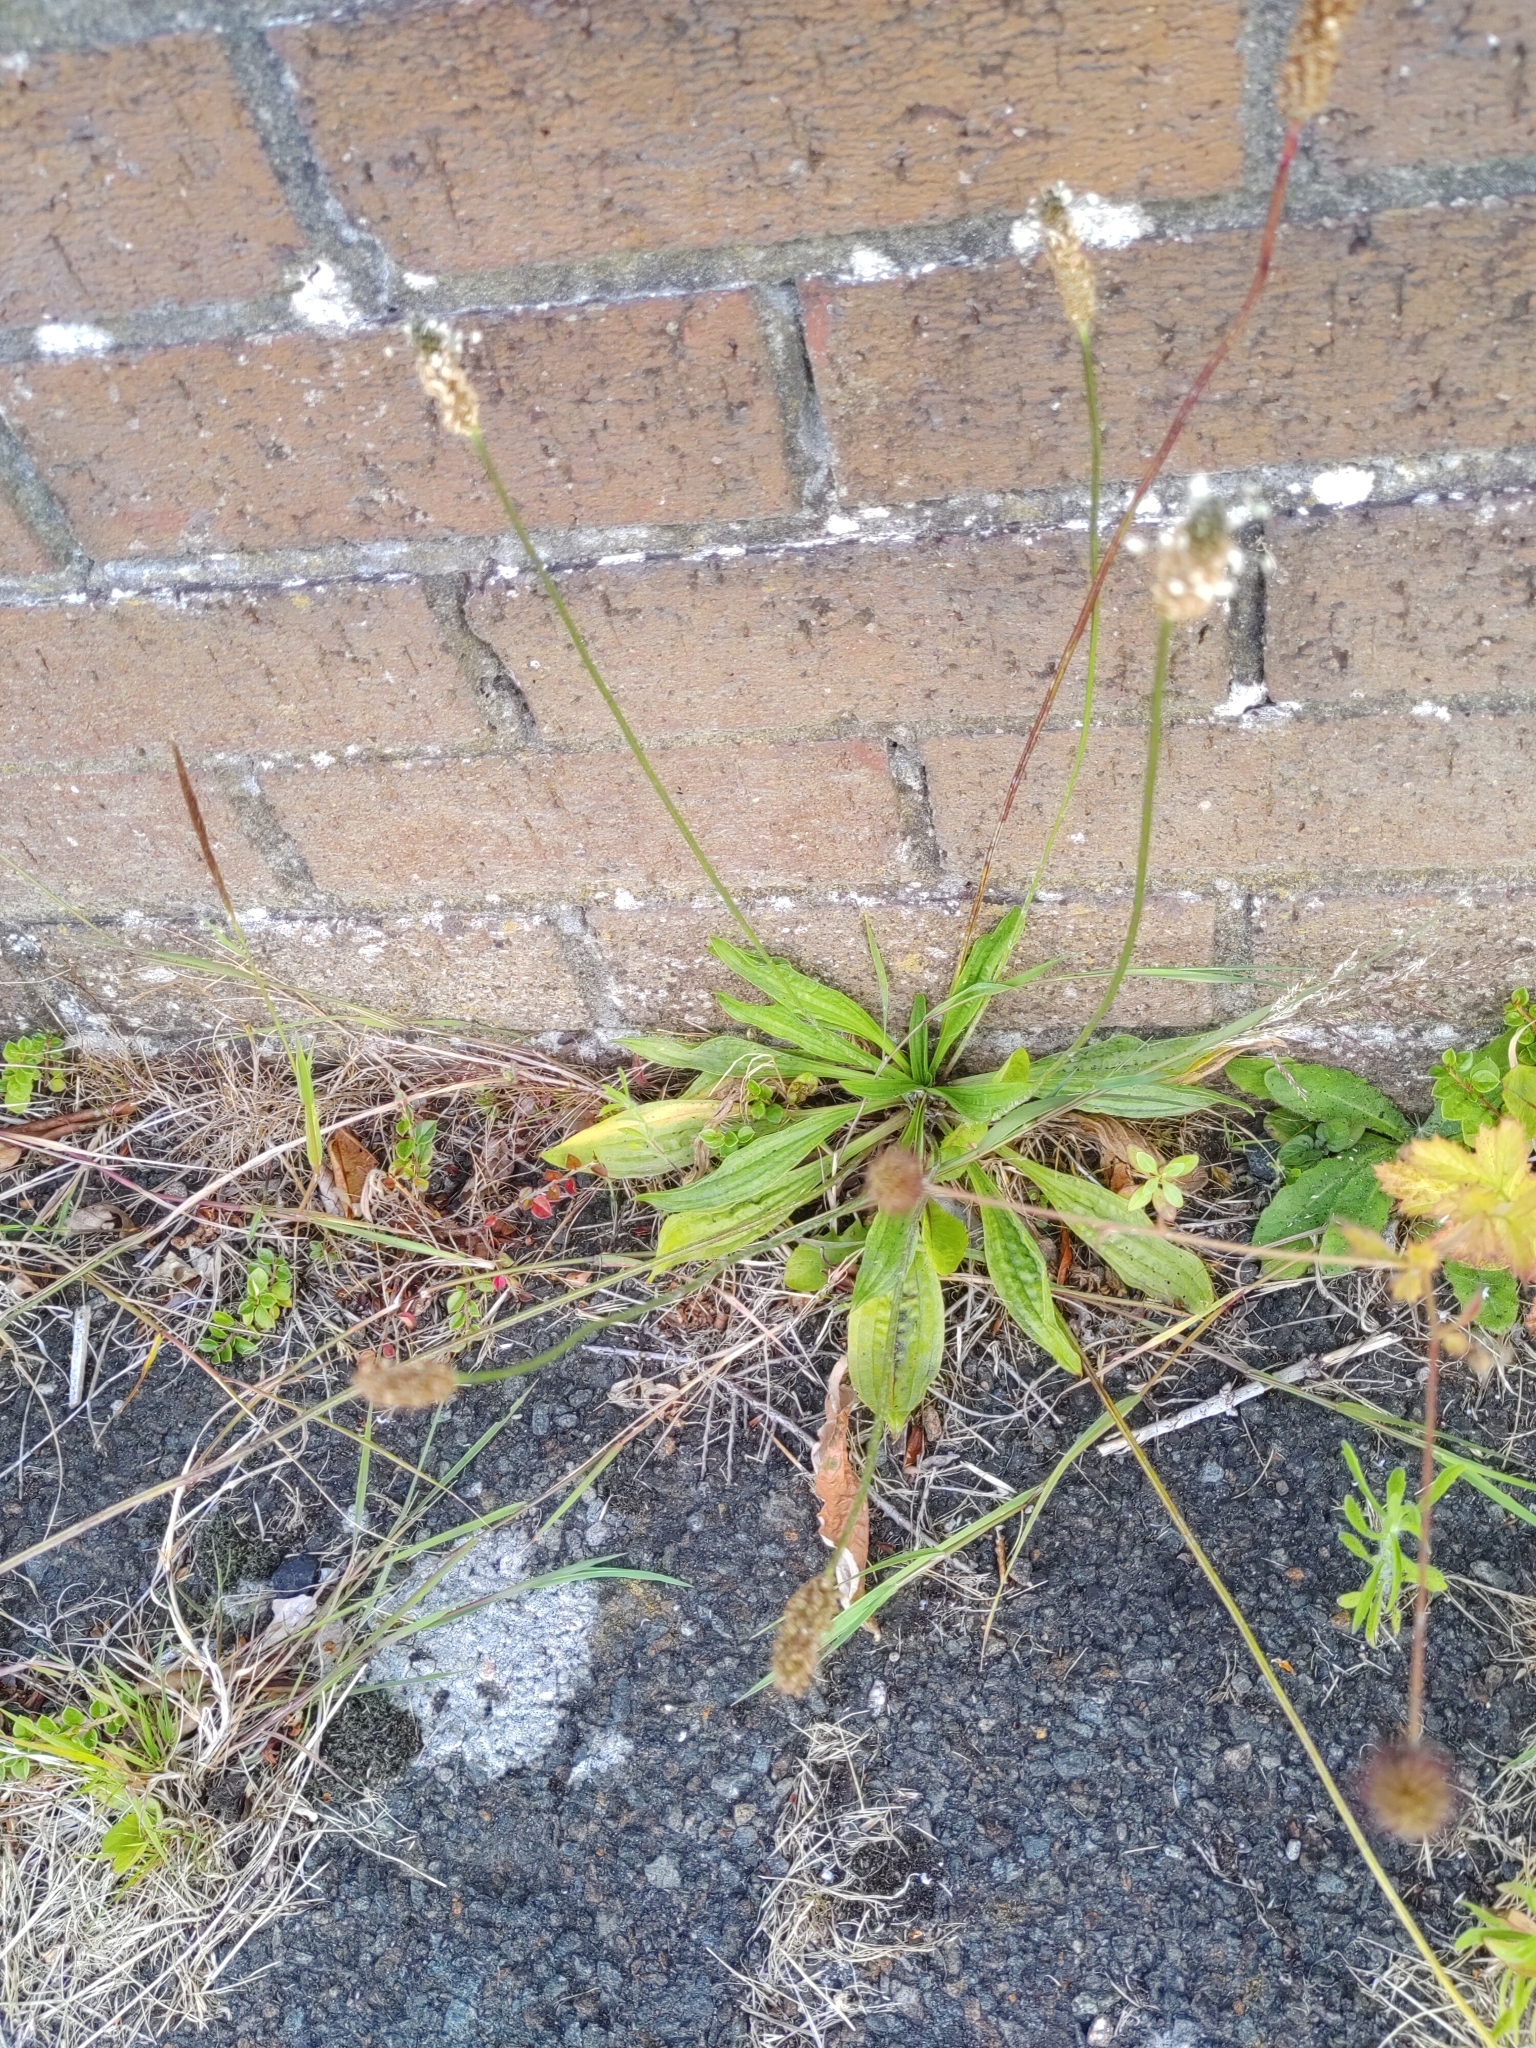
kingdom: Plantae
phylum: Tracheophyta
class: Magnoliopsida
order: Lamiales
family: Plantaginaceae
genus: Plantago
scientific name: Plantago lanceolata
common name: Ribwort plantain
